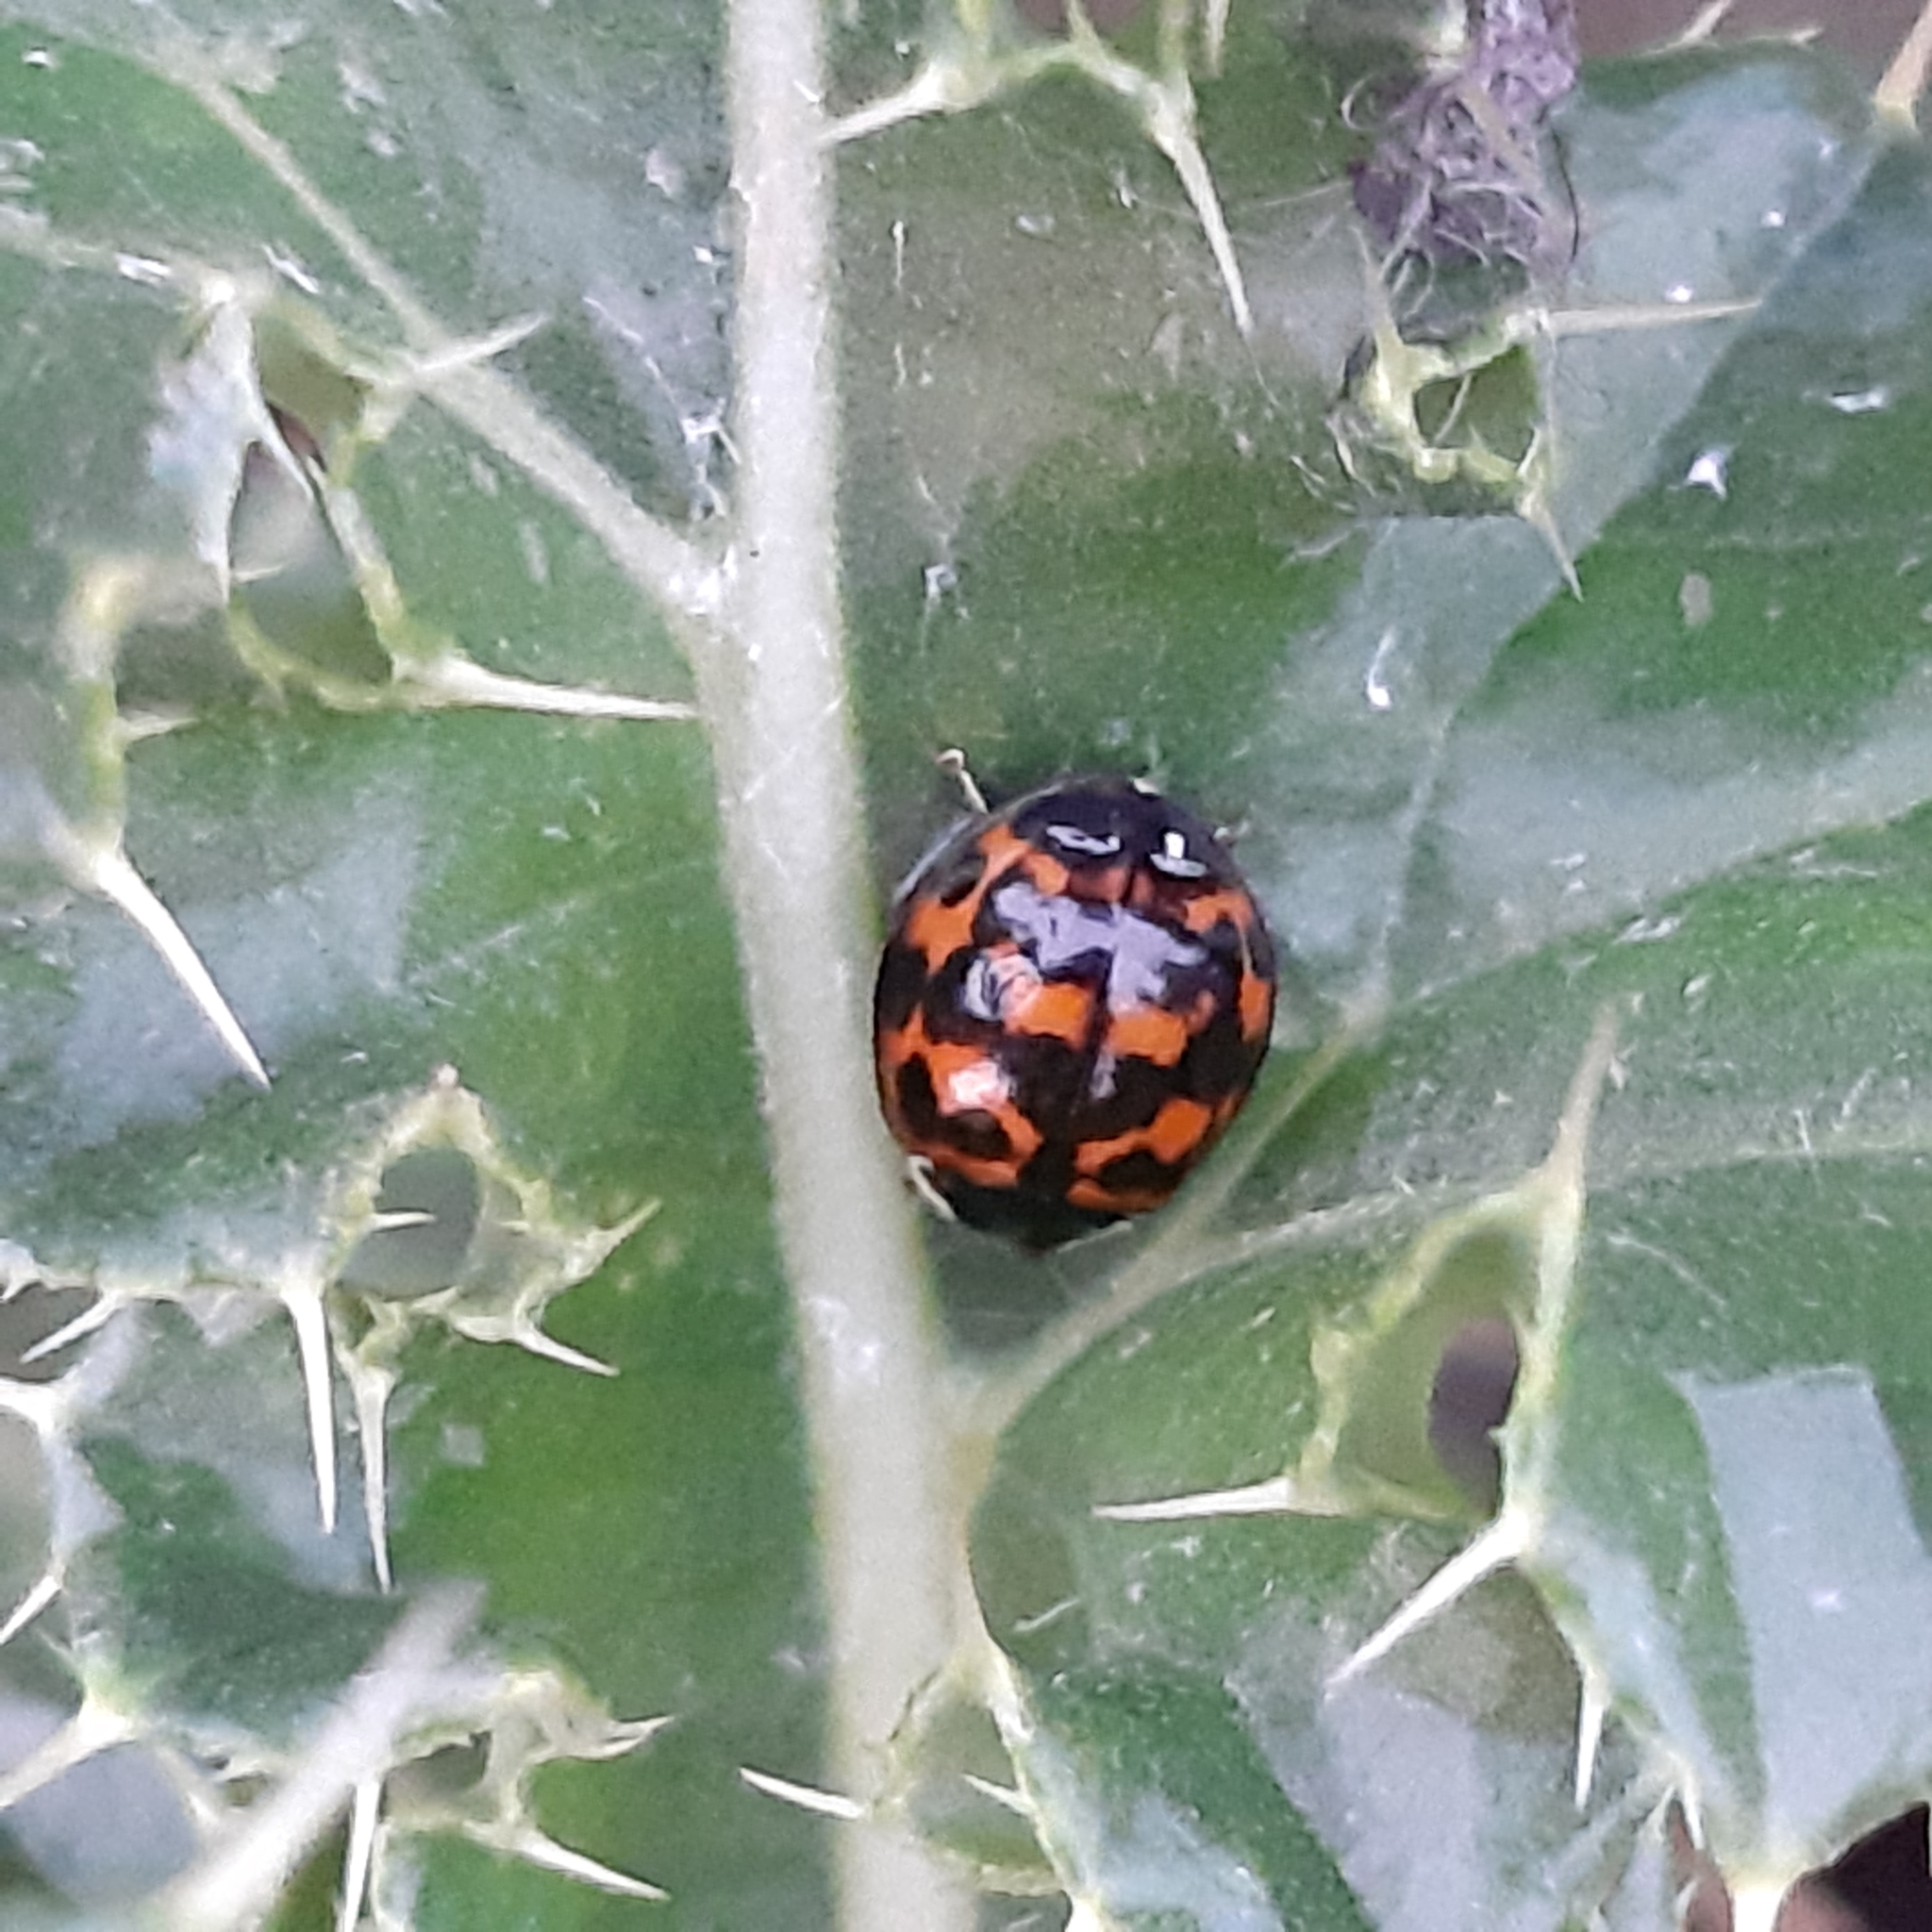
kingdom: Animalia
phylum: Arthropoda
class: Insecta
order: Coleoptera
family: Coccinellidae
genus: Harmonia
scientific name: Harmonia axyridis
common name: Harlequin ladybird
